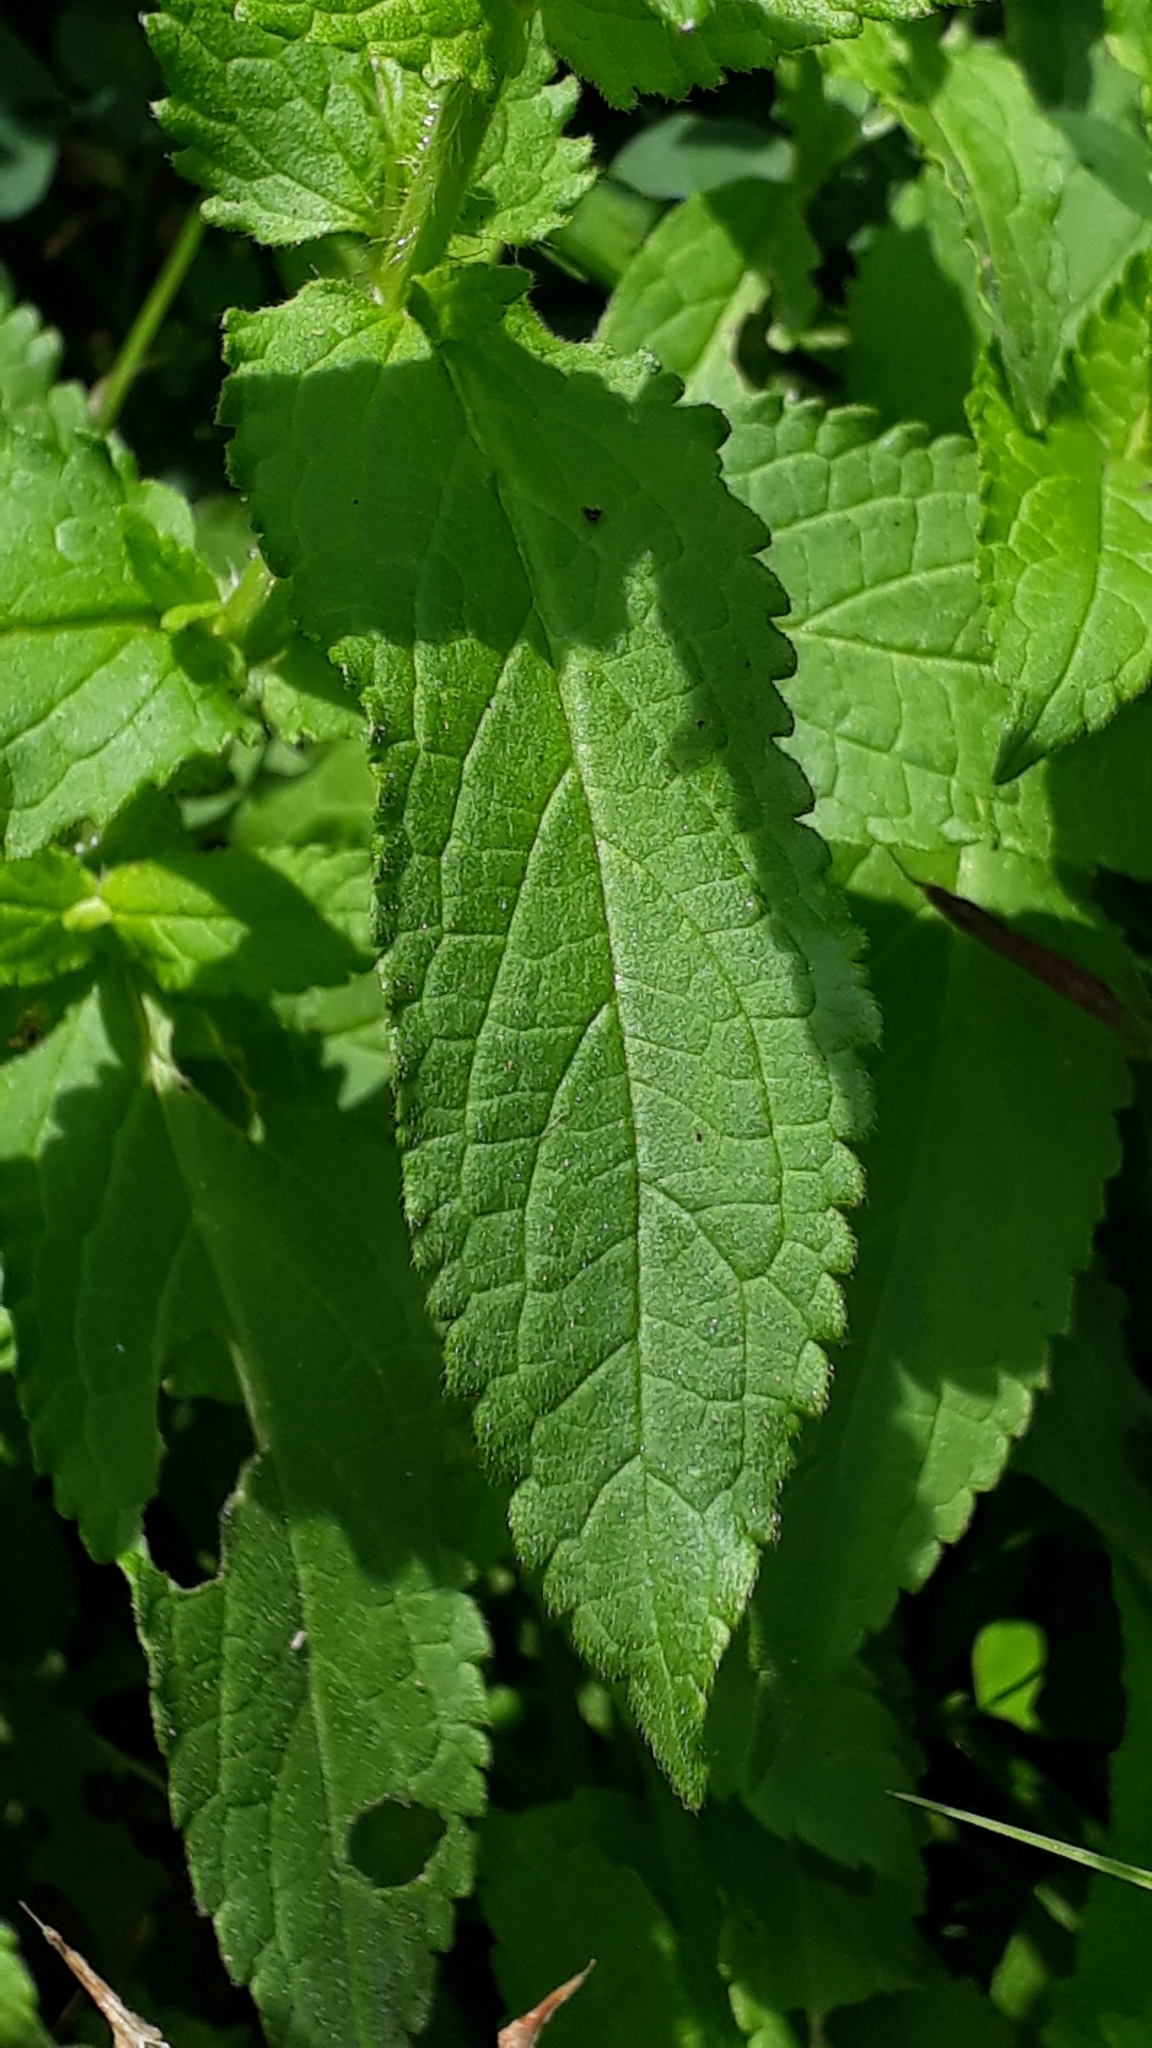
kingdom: Plantae
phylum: Tracheophyta
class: Magnoliopsida
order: Lamiales
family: Lamiaceae
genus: Stachys
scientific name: Stachys palustris
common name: Marsh woundwort
